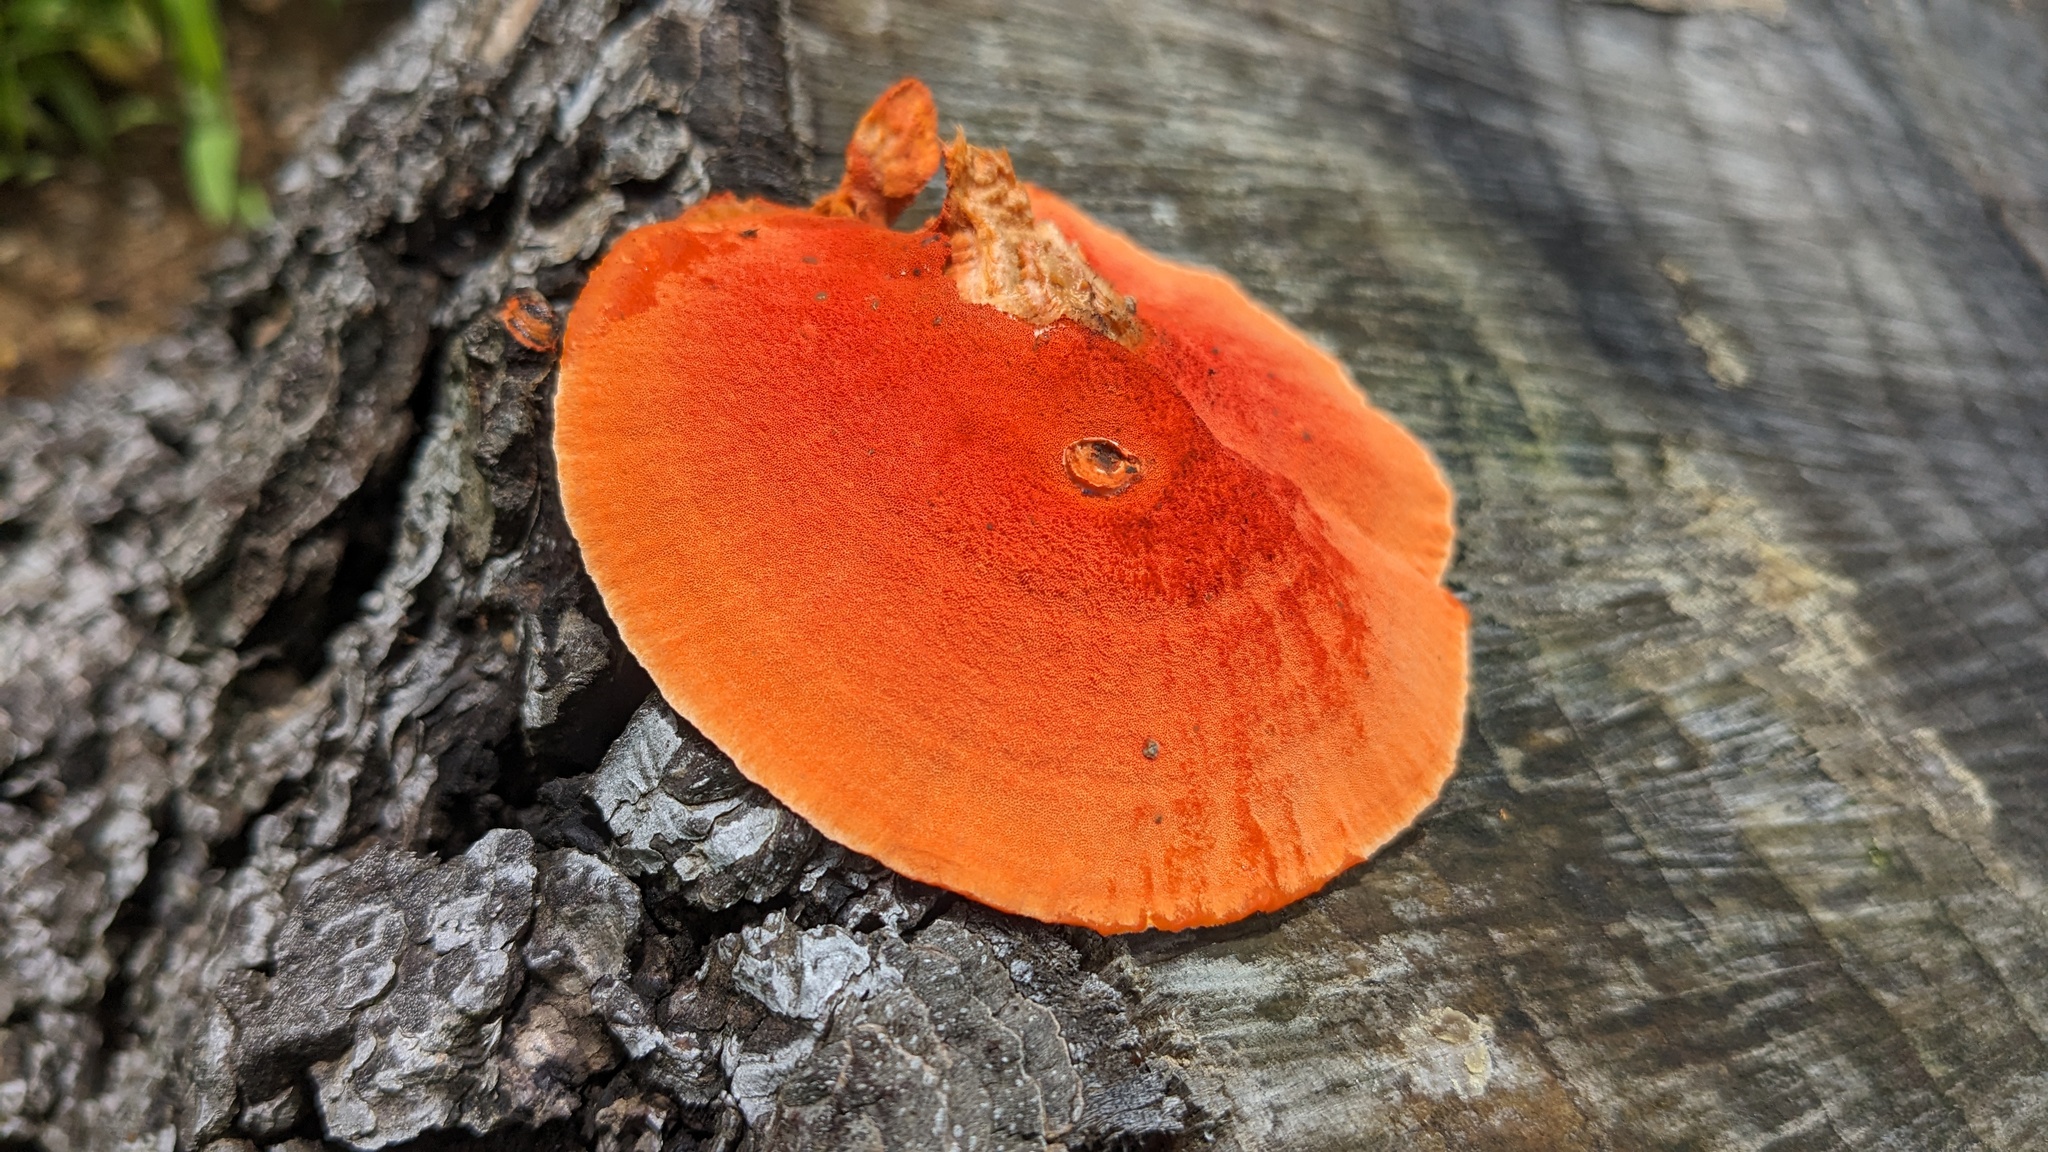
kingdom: Fungi
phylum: Basidiomycota
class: Agaricomycetes
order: Polyporales
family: Polyporaceae
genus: Trametes
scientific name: Trametes coccinea
